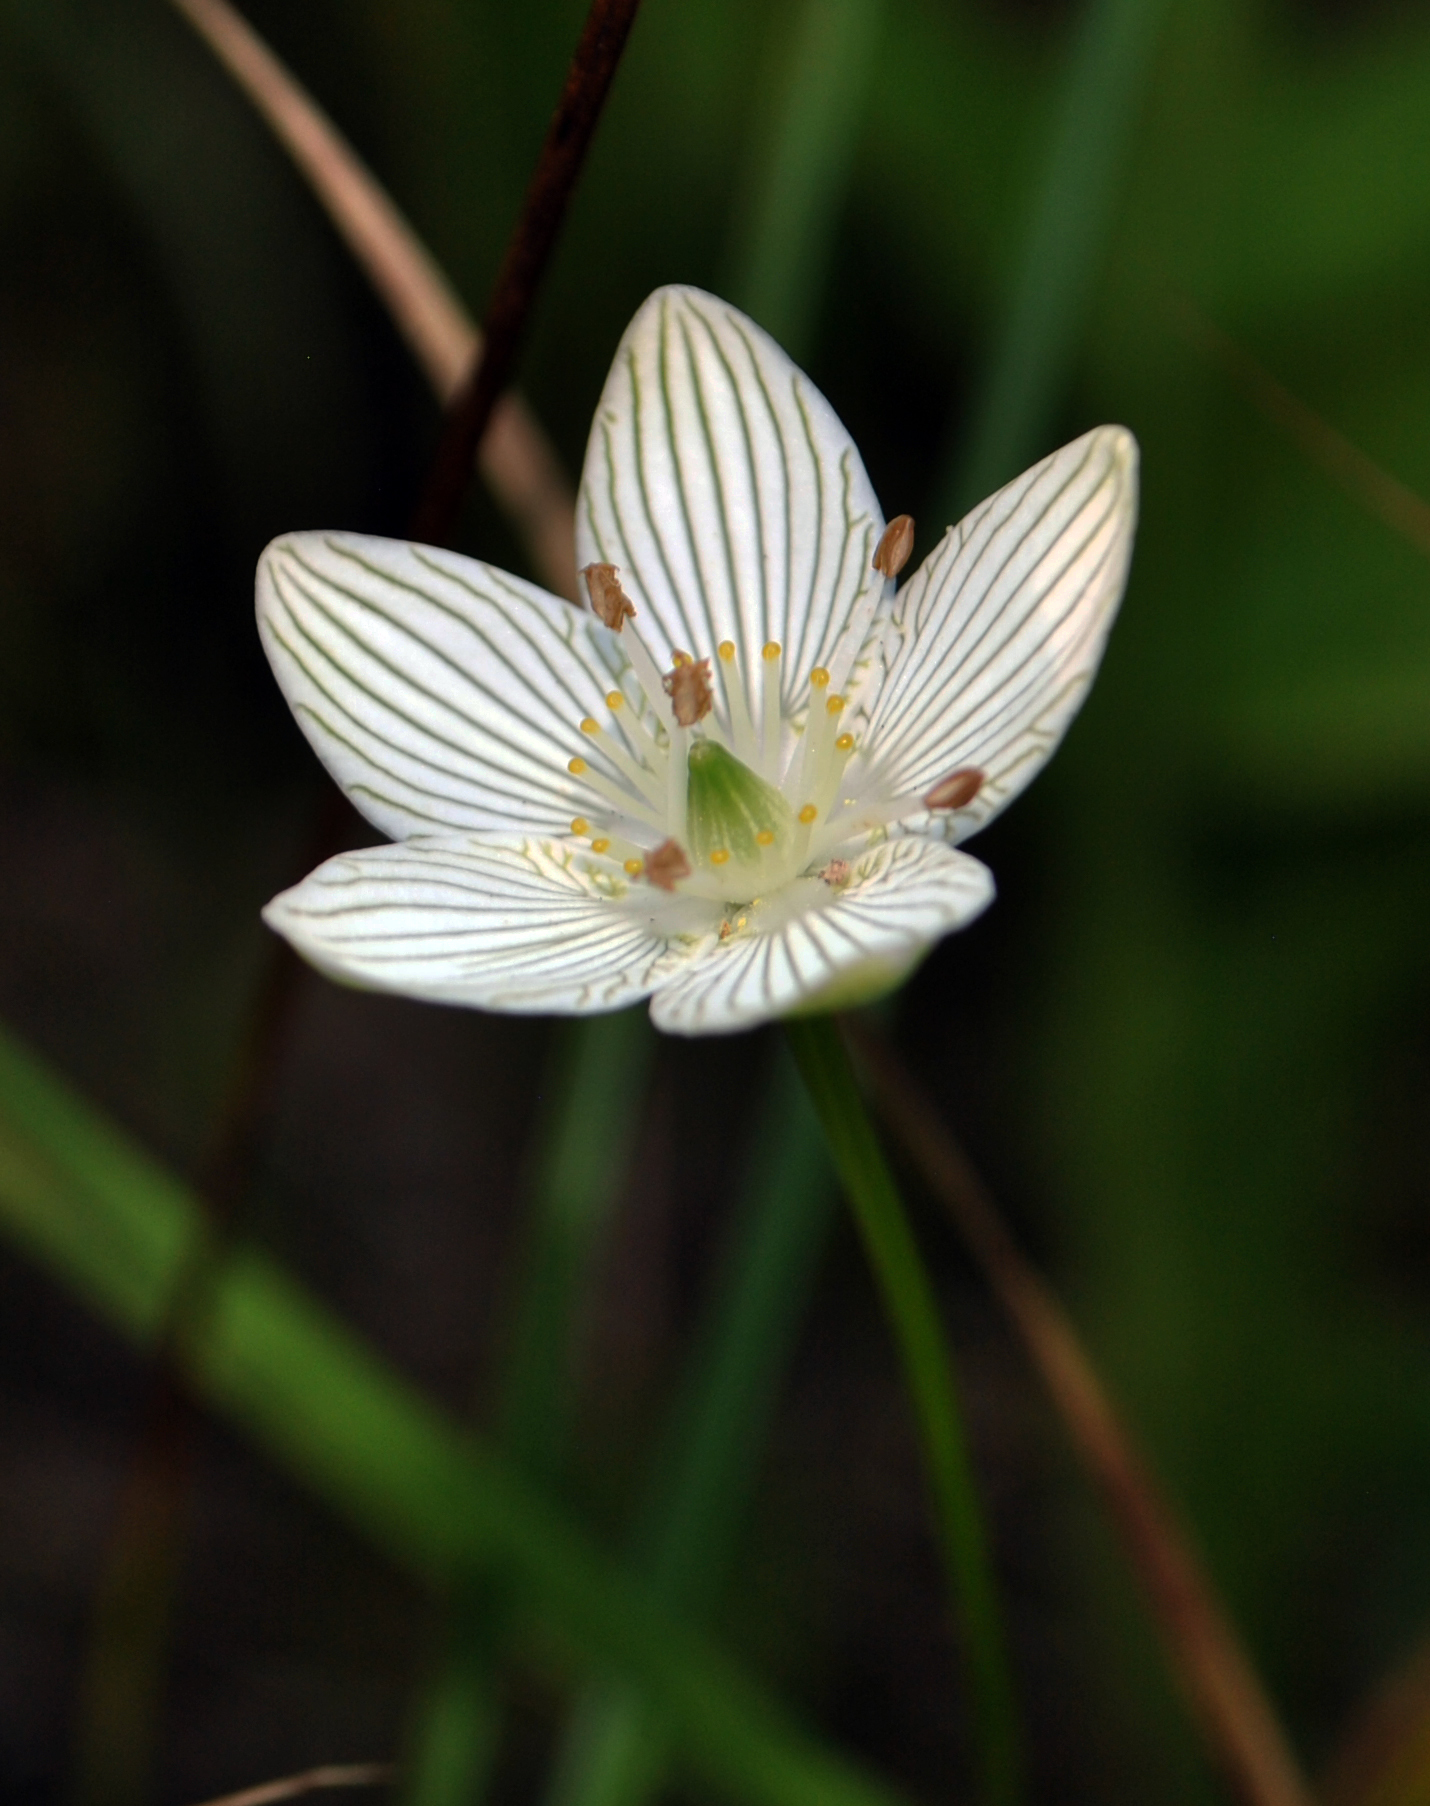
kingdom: Plantae
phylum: Tracheophyta
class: Magnoliopsida
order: Celastrales
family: Parnassiaceae
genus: Parnassia
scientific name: Parnassia glauca
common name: American grass-of-parnassus
